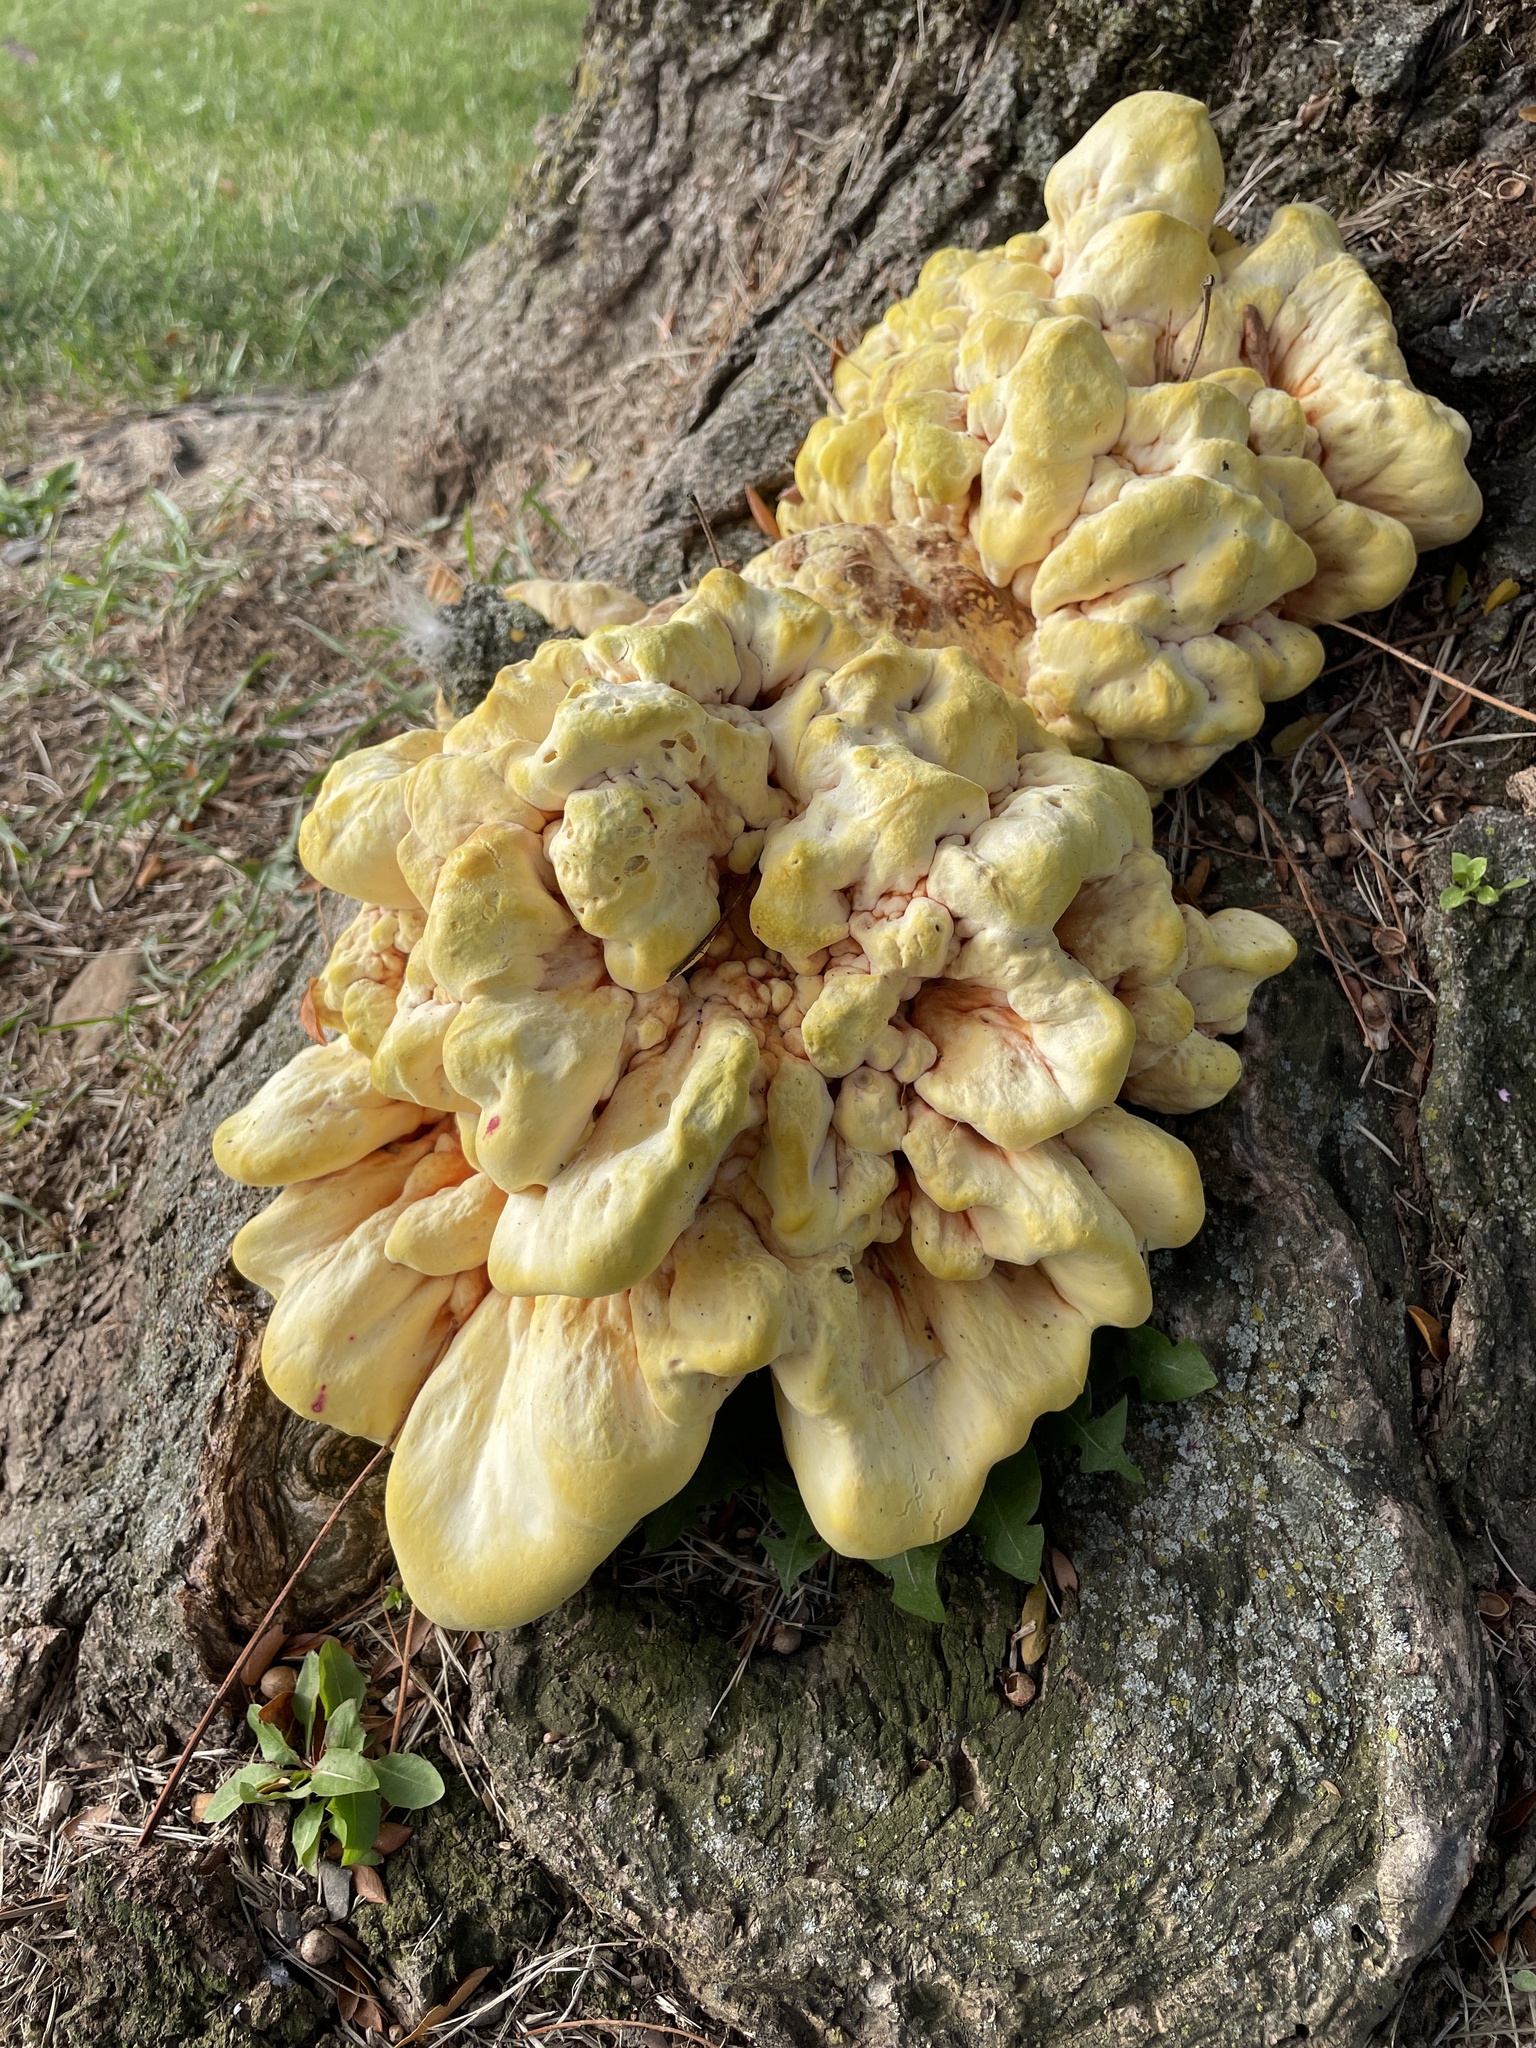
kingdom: Fungi
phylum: Basidiomycota
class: Agaricomycetes
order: Polyporales
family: Laetiporaceae
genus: Laetiporus
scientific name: Laetiporus sulphureus
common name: Chicken of the woods
